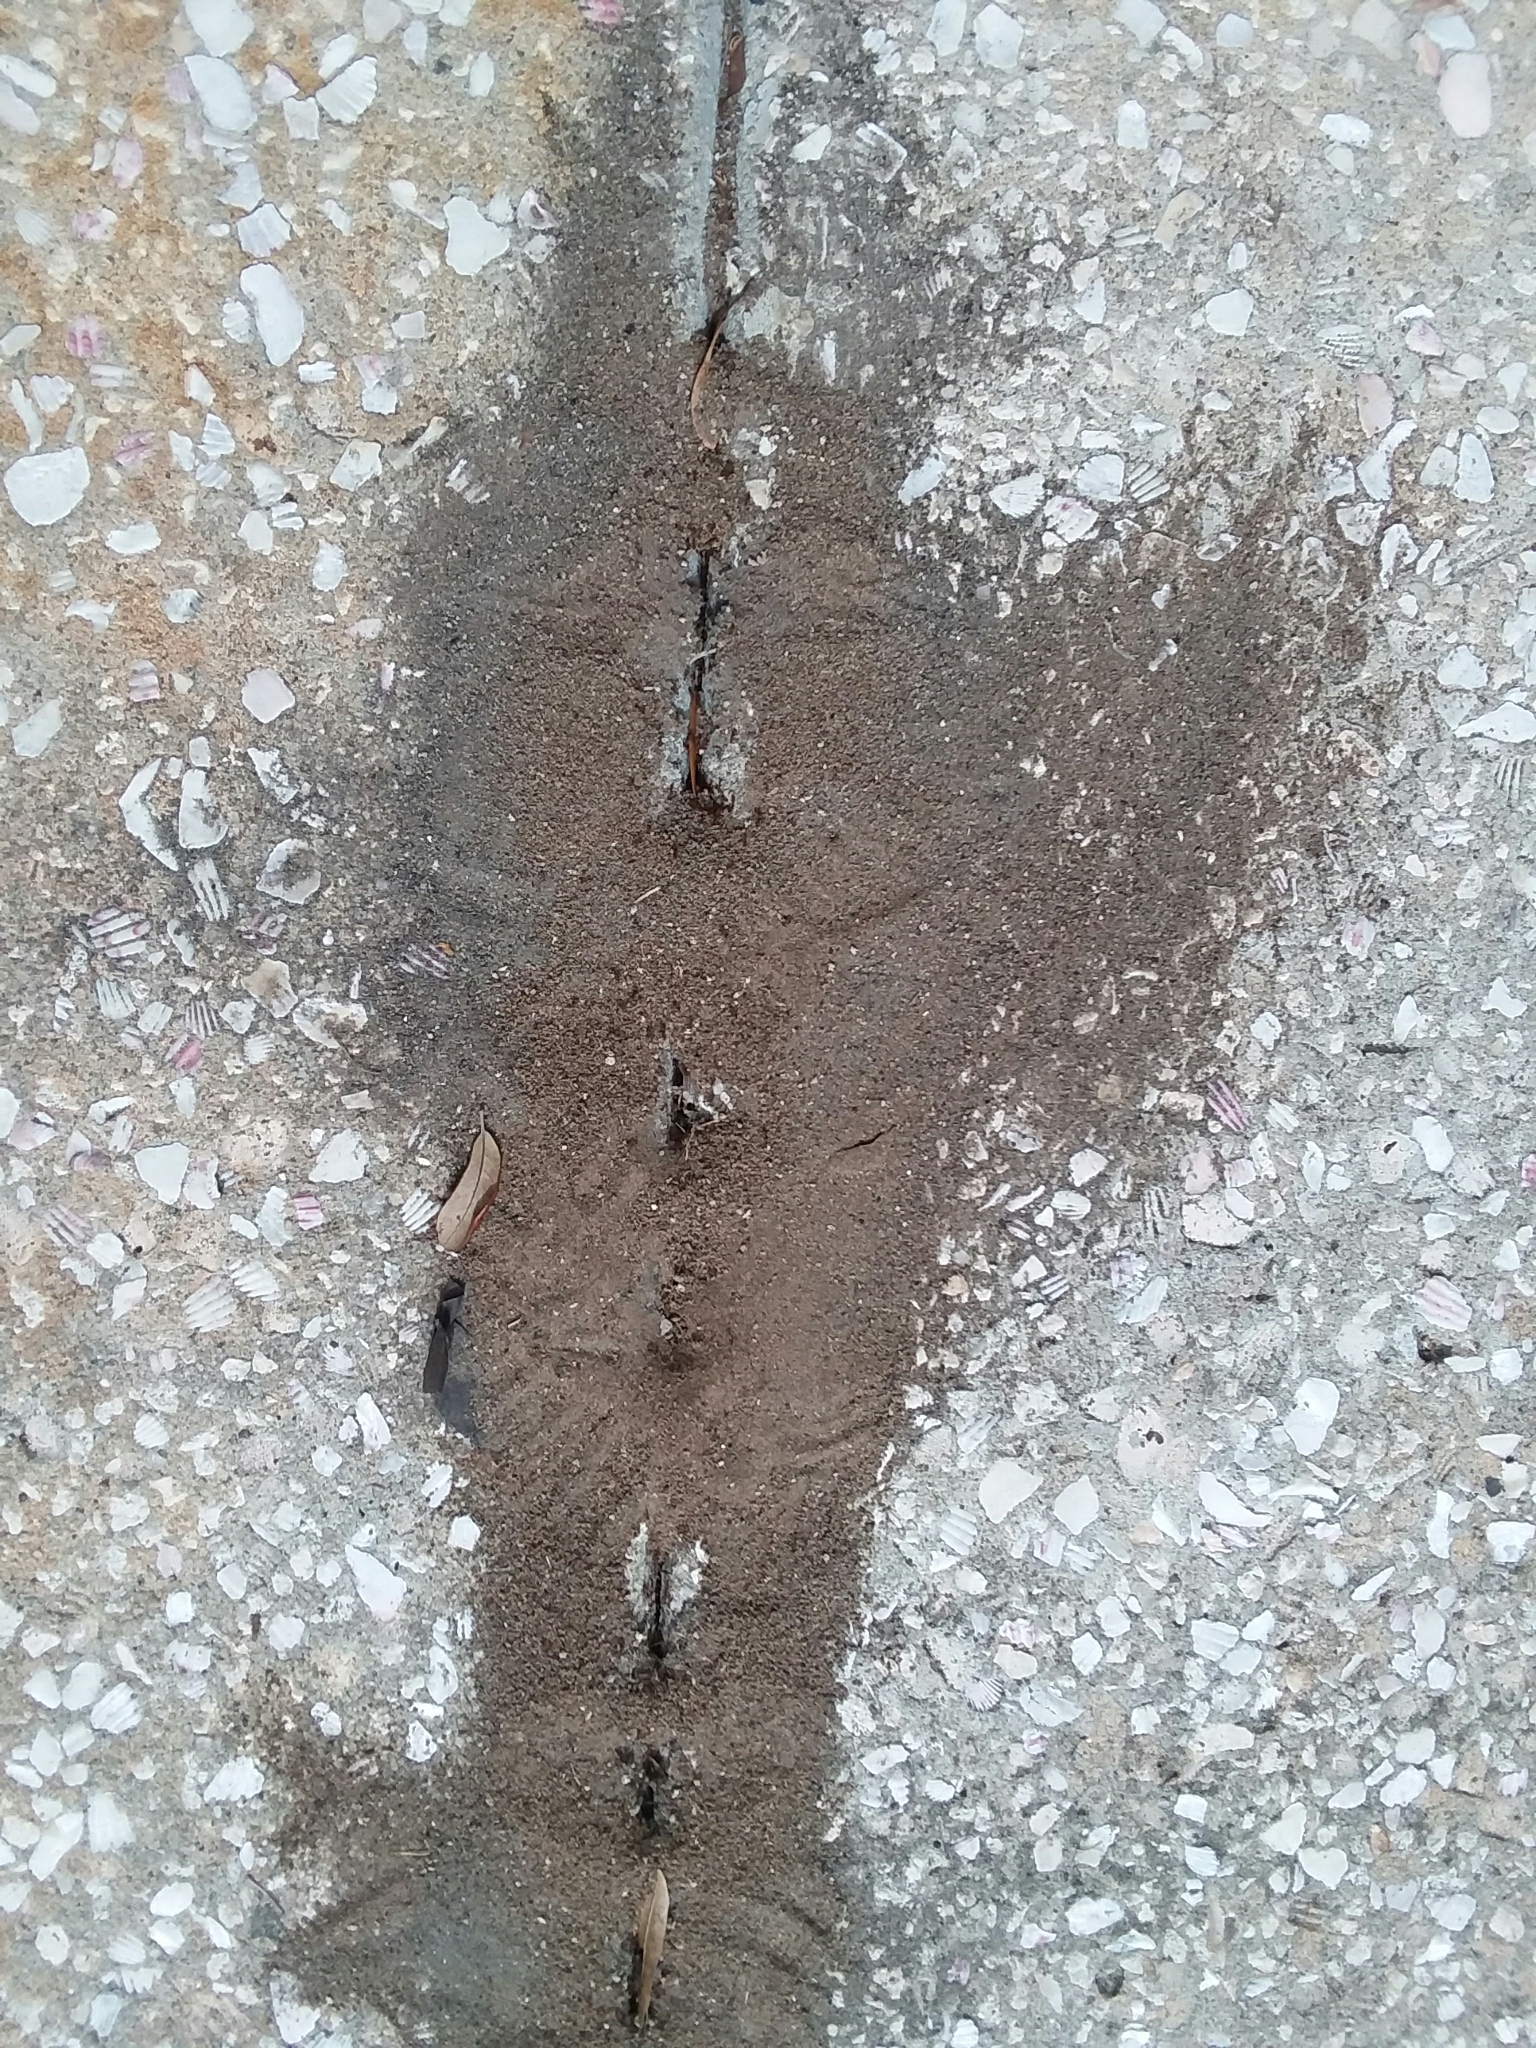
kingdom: Animalia
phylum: Arthropoda
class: Insecta
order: Hymenoptera
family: Formicidae
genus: Solenopsis
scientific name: Solenopsis invicta
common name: Red imported fire ant
